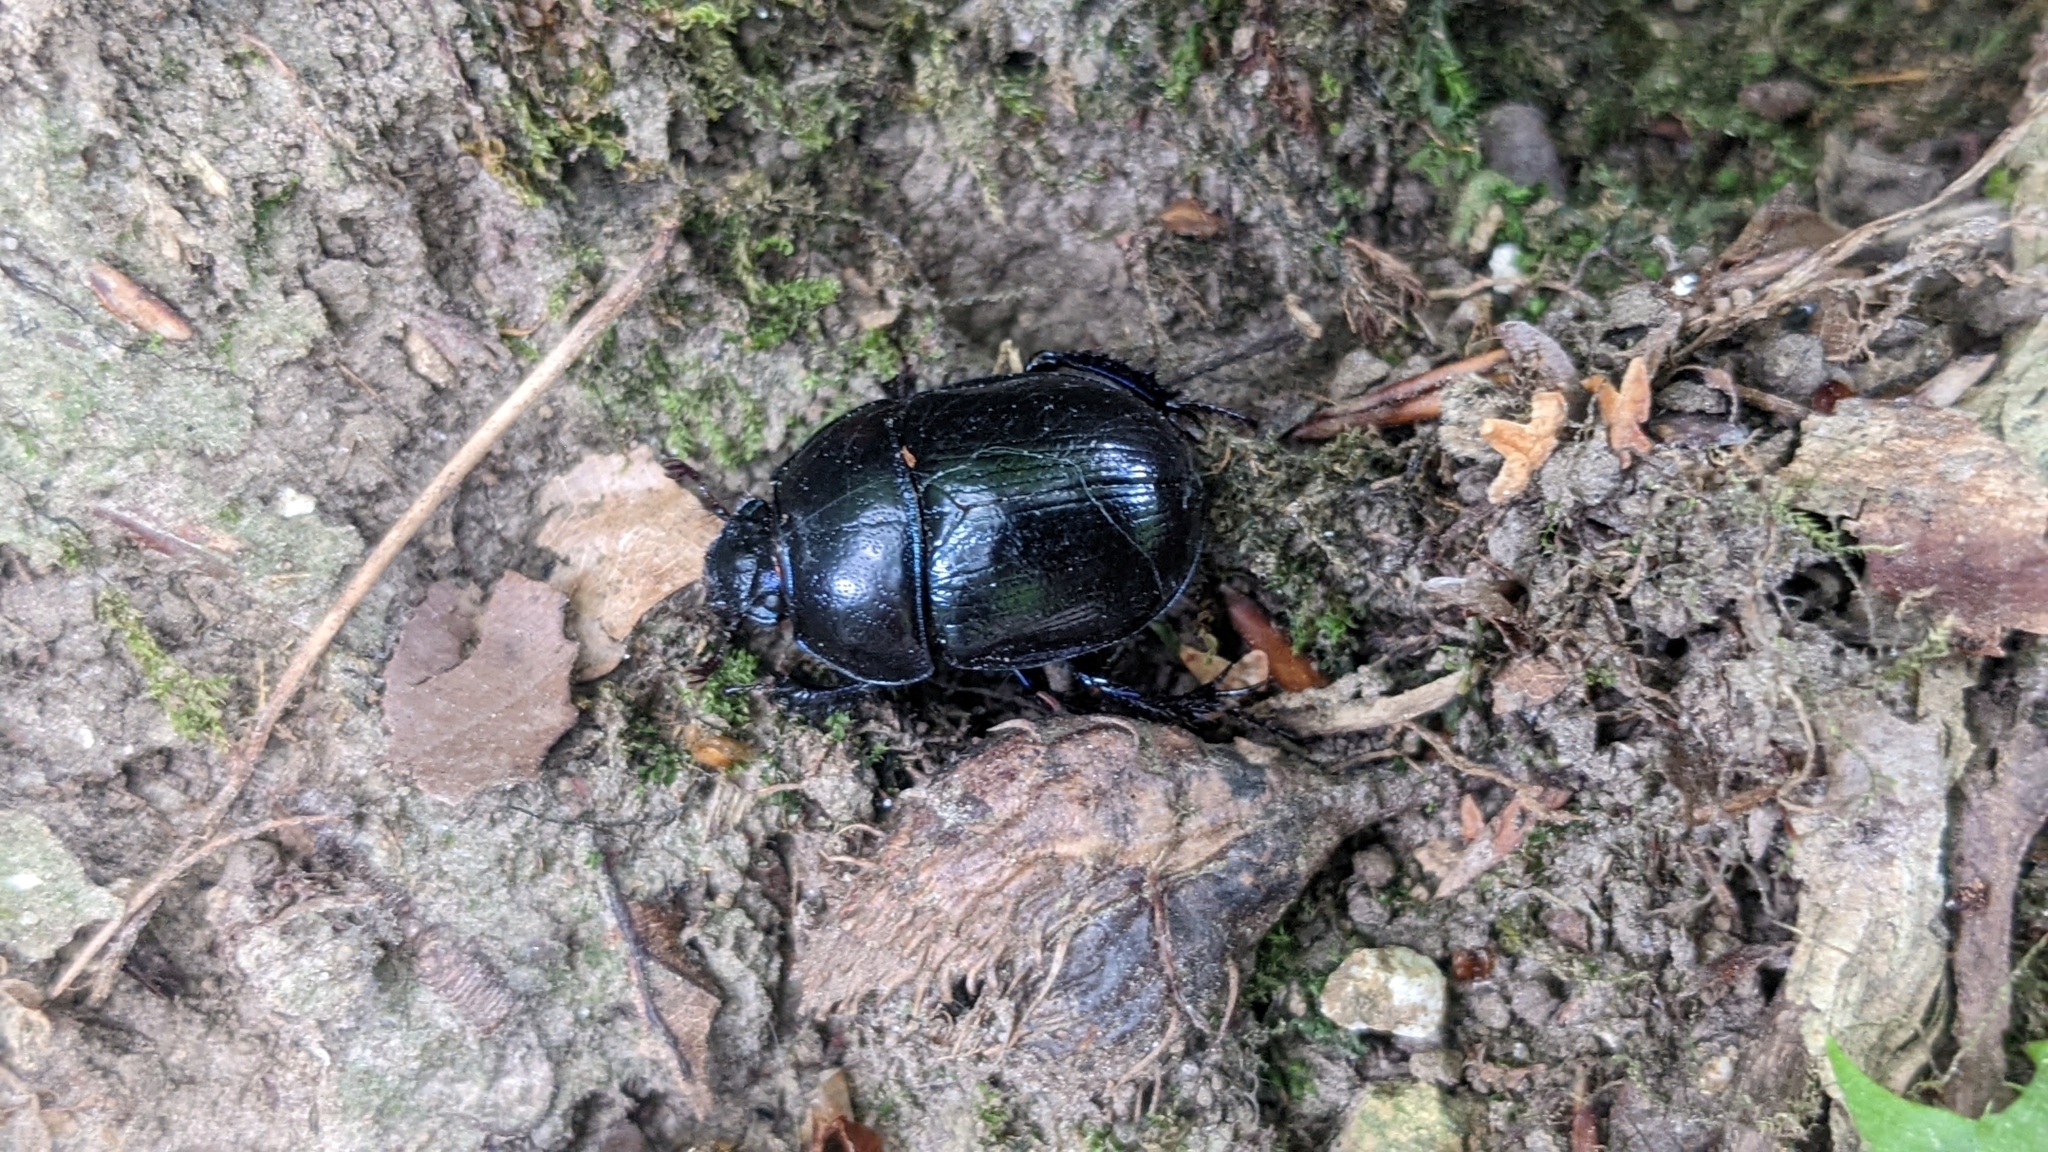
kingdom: Animalia
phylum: Arthropoda
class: Insecta
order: Coleoptera
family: Geotrupidae
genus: Anoplotrupes
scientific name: Anoplotrupes stercorosus
